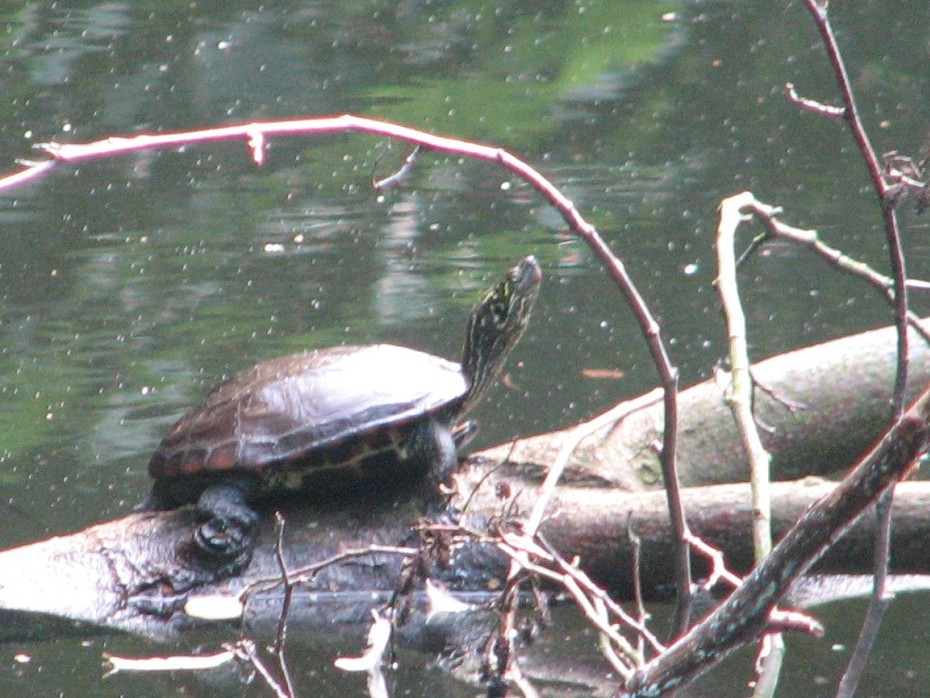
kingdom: Animalia
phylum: Chordata
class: Testudines
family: Geoemydidae
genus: Mauremys
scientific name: Mauremys reevesii
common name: Chinese pond turtle
